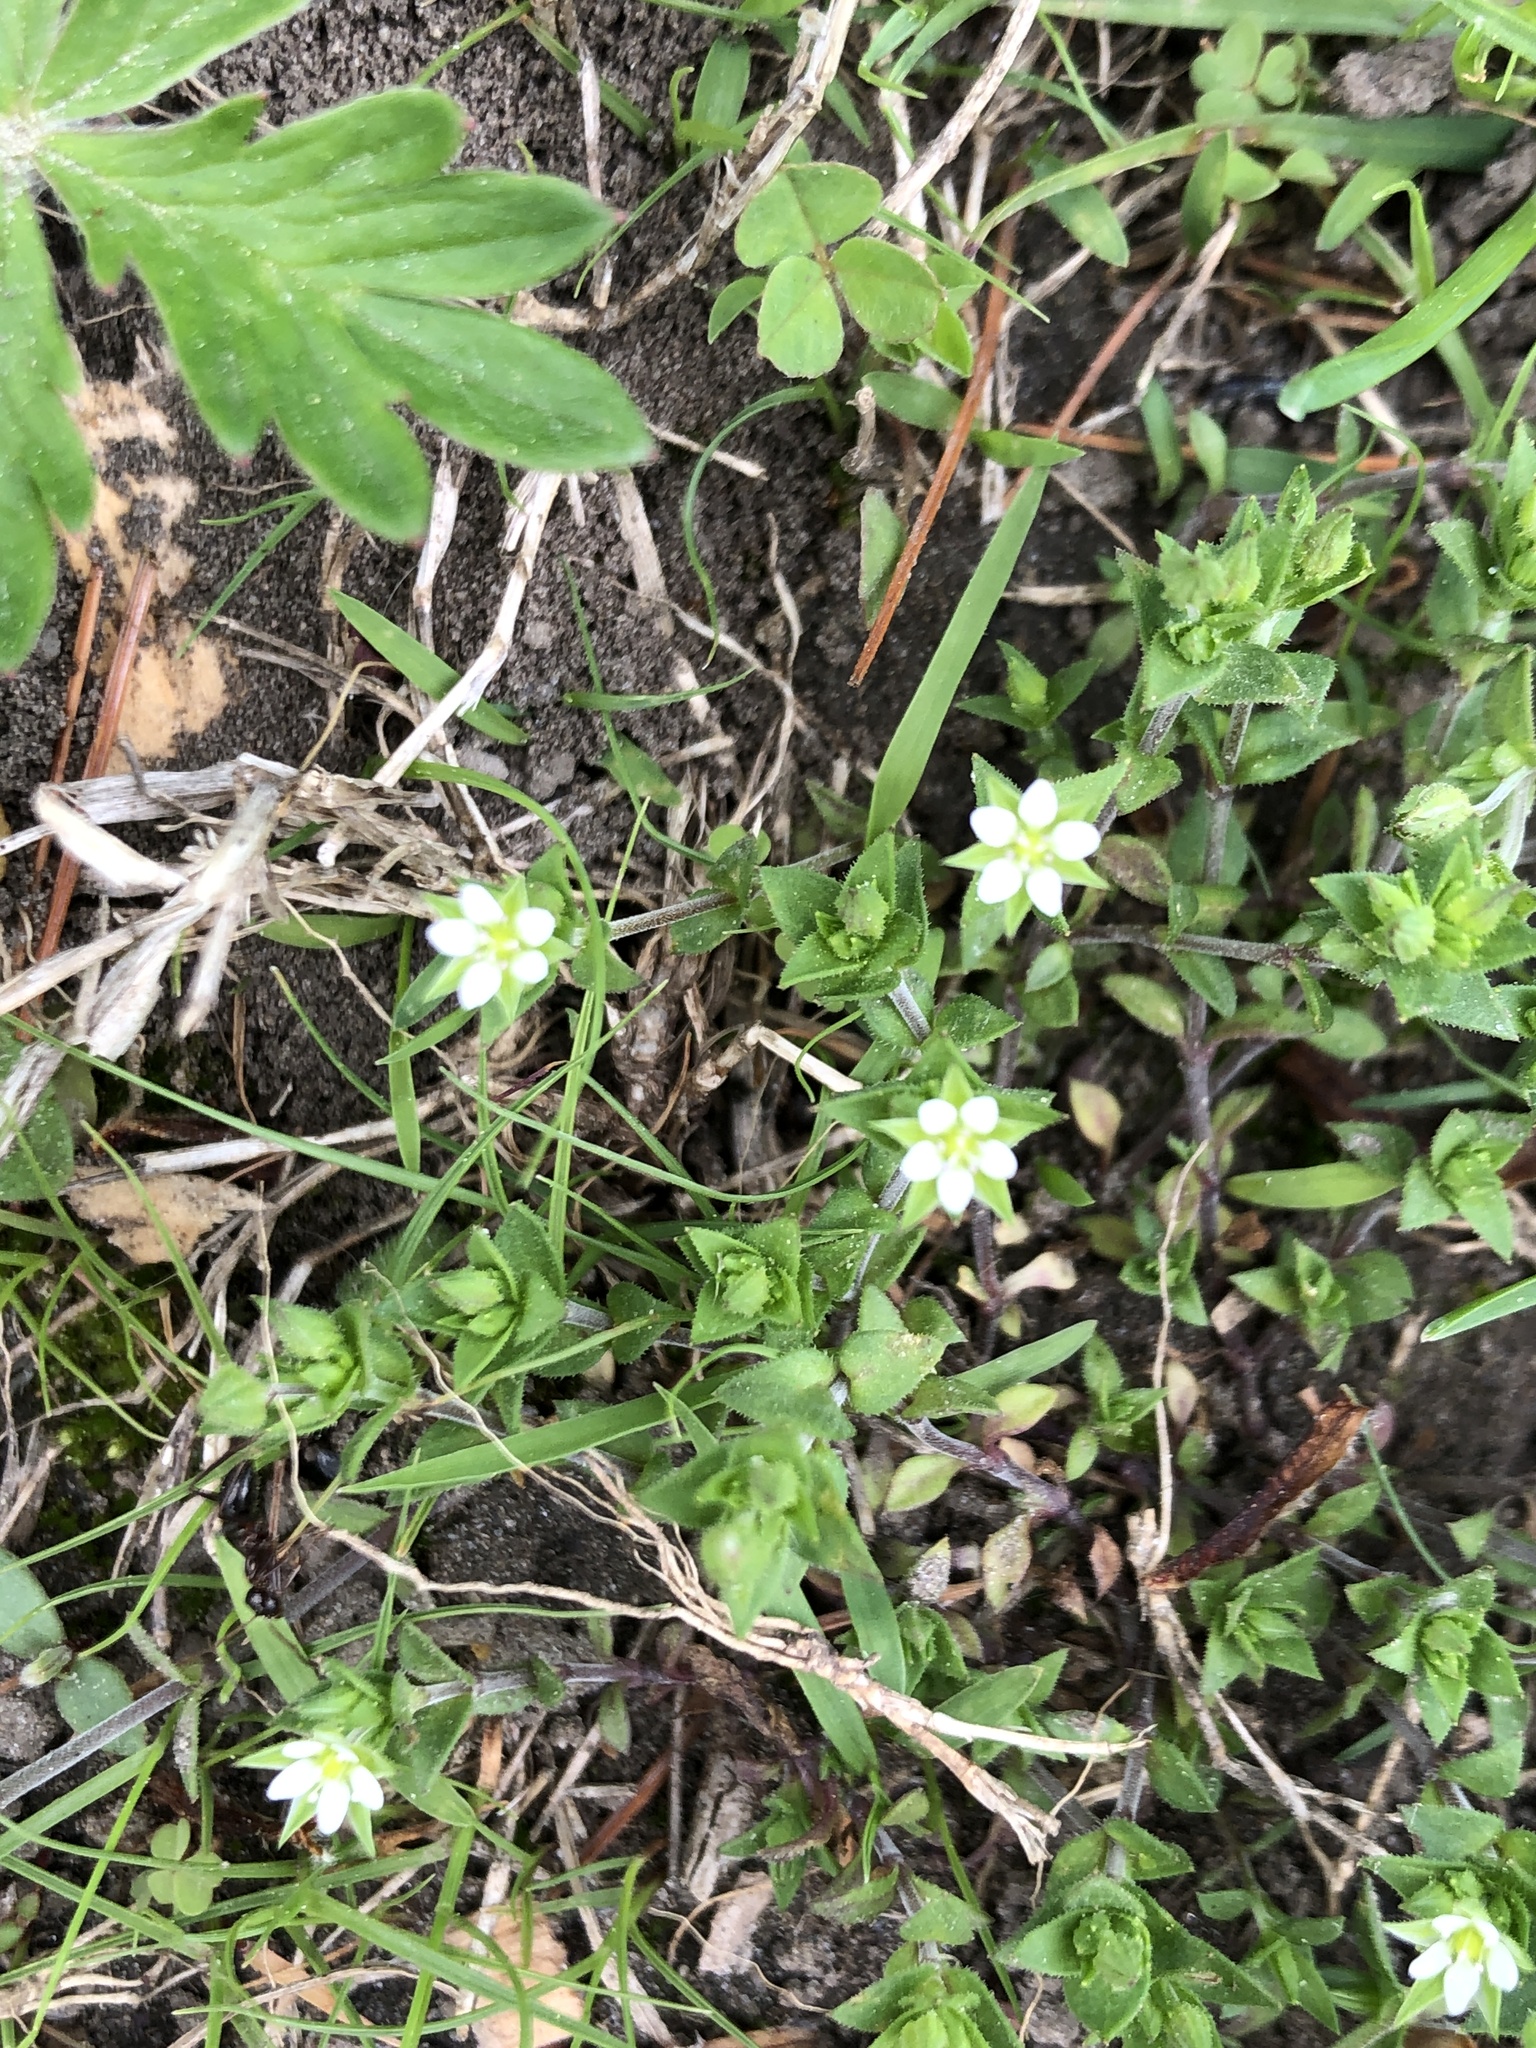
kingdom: Plantae
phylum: Tracheophyta
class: Magnoliopsida
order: Caryophyllales
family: Caryophyllaceae
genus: Arenaria
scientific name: Arenaria serpyllifolia
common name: Thyme-leaved sandwort
